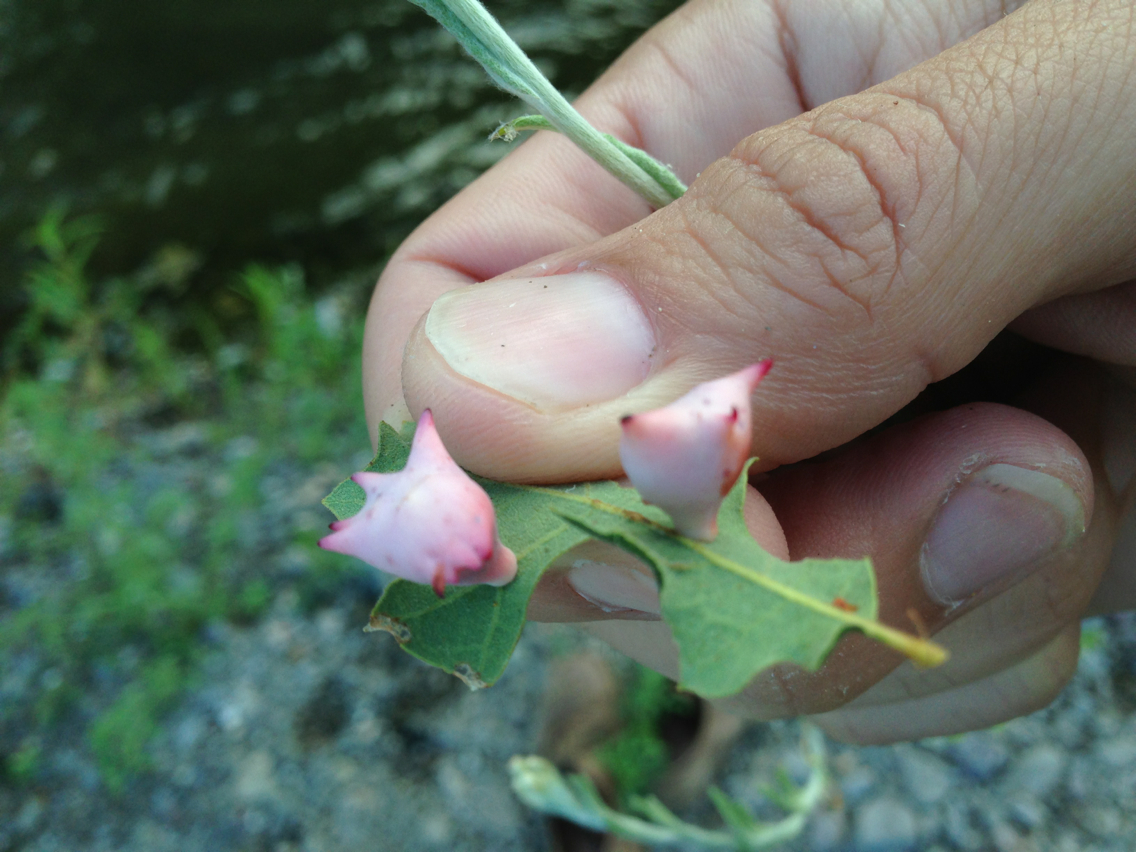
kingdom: Animalia
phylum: Arthropoda
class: Insecta
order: Hymenoptera
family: Cynipidae
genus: Cynips
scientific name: Cynips douglasi
